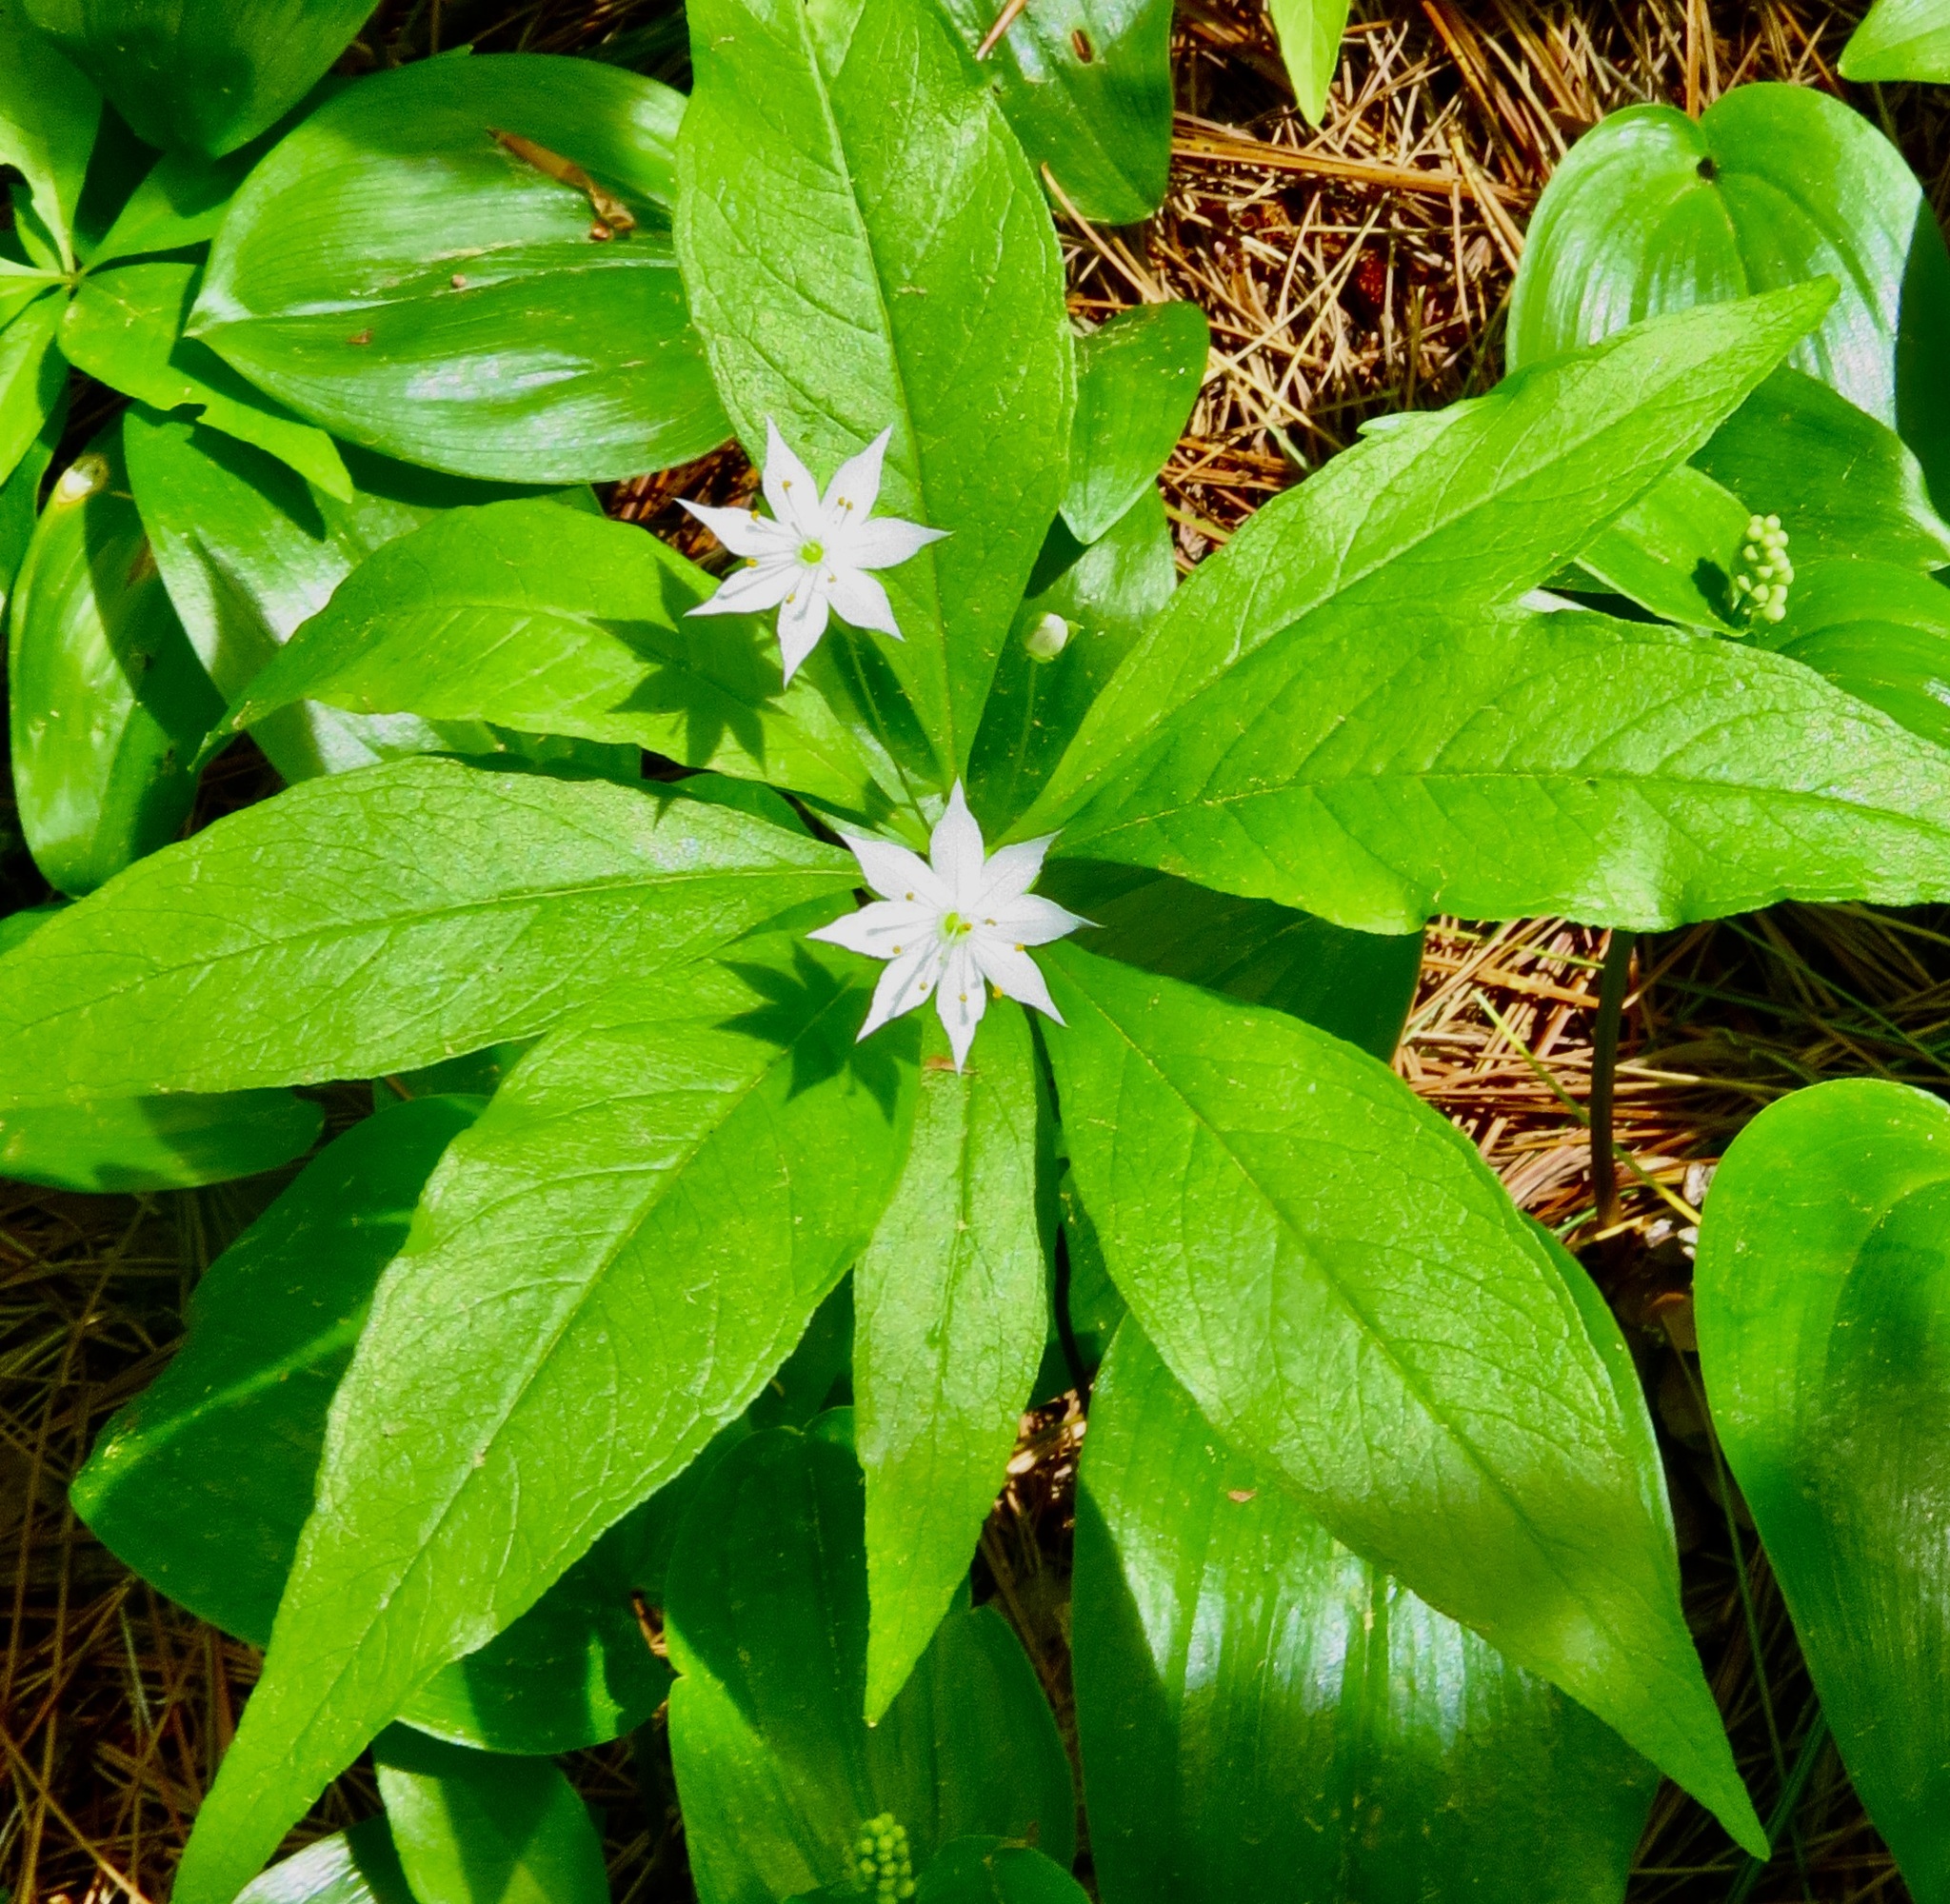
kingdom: Plantae
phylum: Tracheophyta
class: Magnoliopsida
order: Ericales
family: Primulaceae
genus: Lysimachia
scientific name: Lysimachia borealis
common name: American starflower
